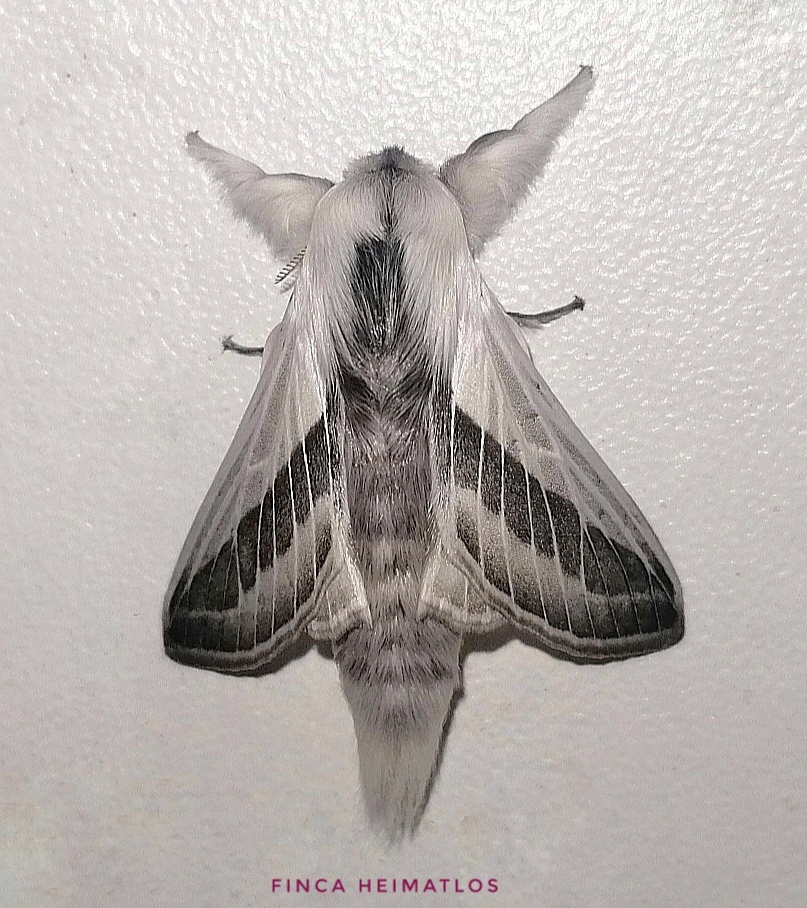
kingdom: Animalia
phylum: Arthropoda
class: Insecta
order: Lepidoptera
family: Lasiocampidae
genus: Titya
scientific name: Titya noctilux
